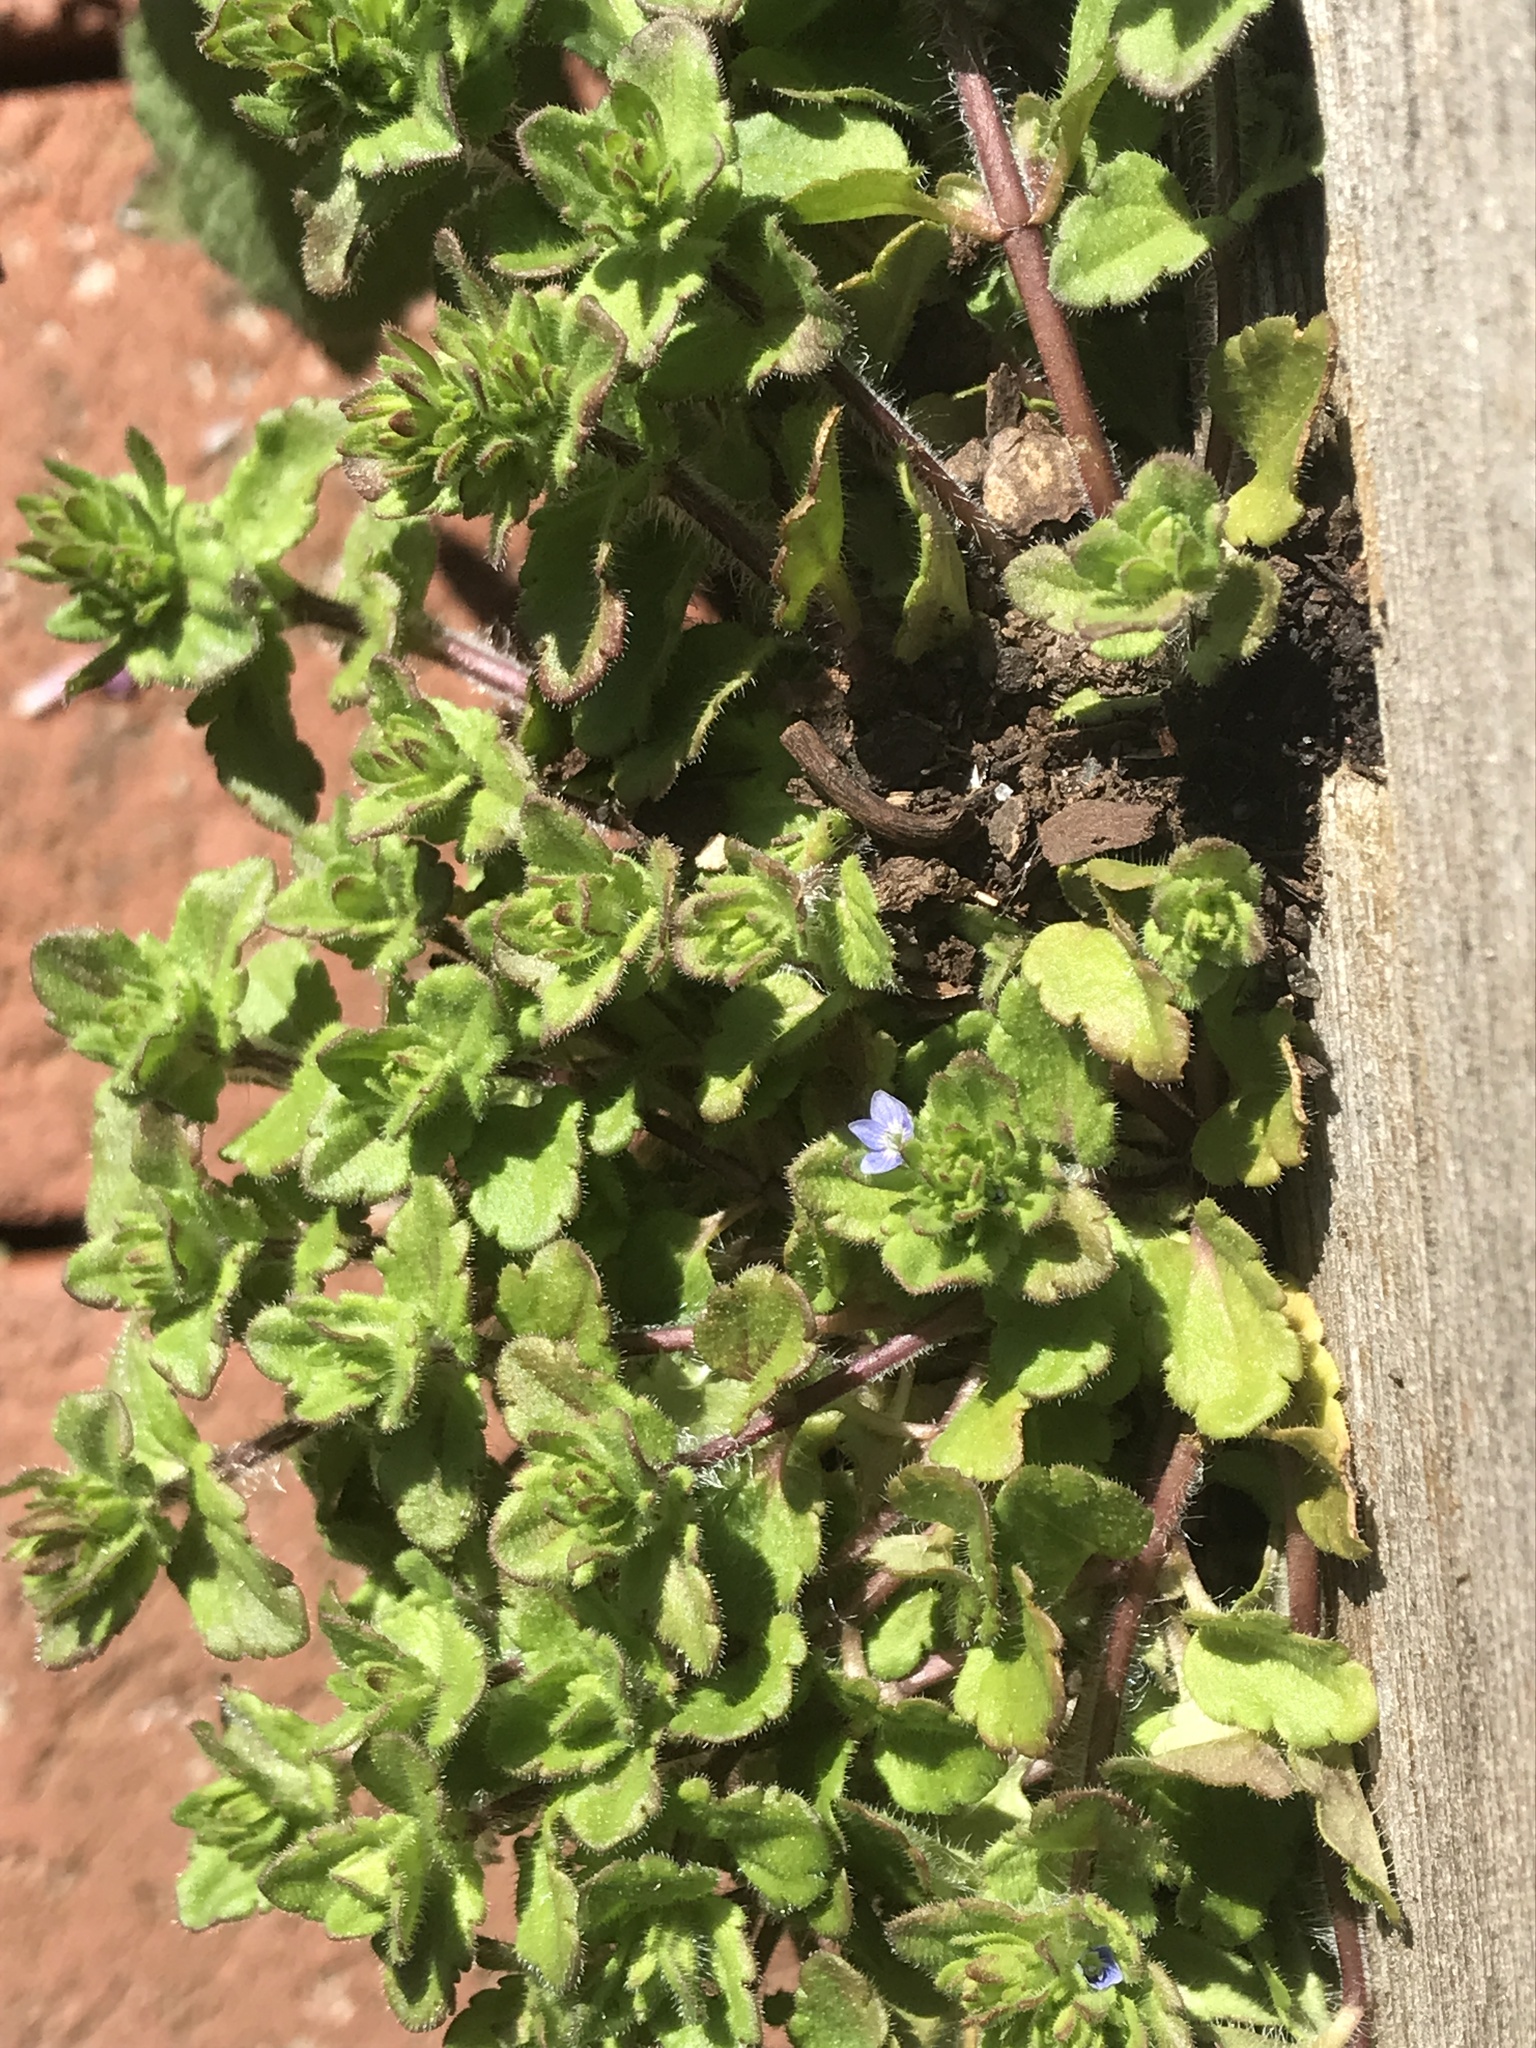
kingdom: Plantae
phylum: Tracheophyta
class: Magnoliopsida
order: Lamiales
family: Plantaginaceae
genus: Veronica
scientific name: Veronica arvensis
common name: Corn speedwell
